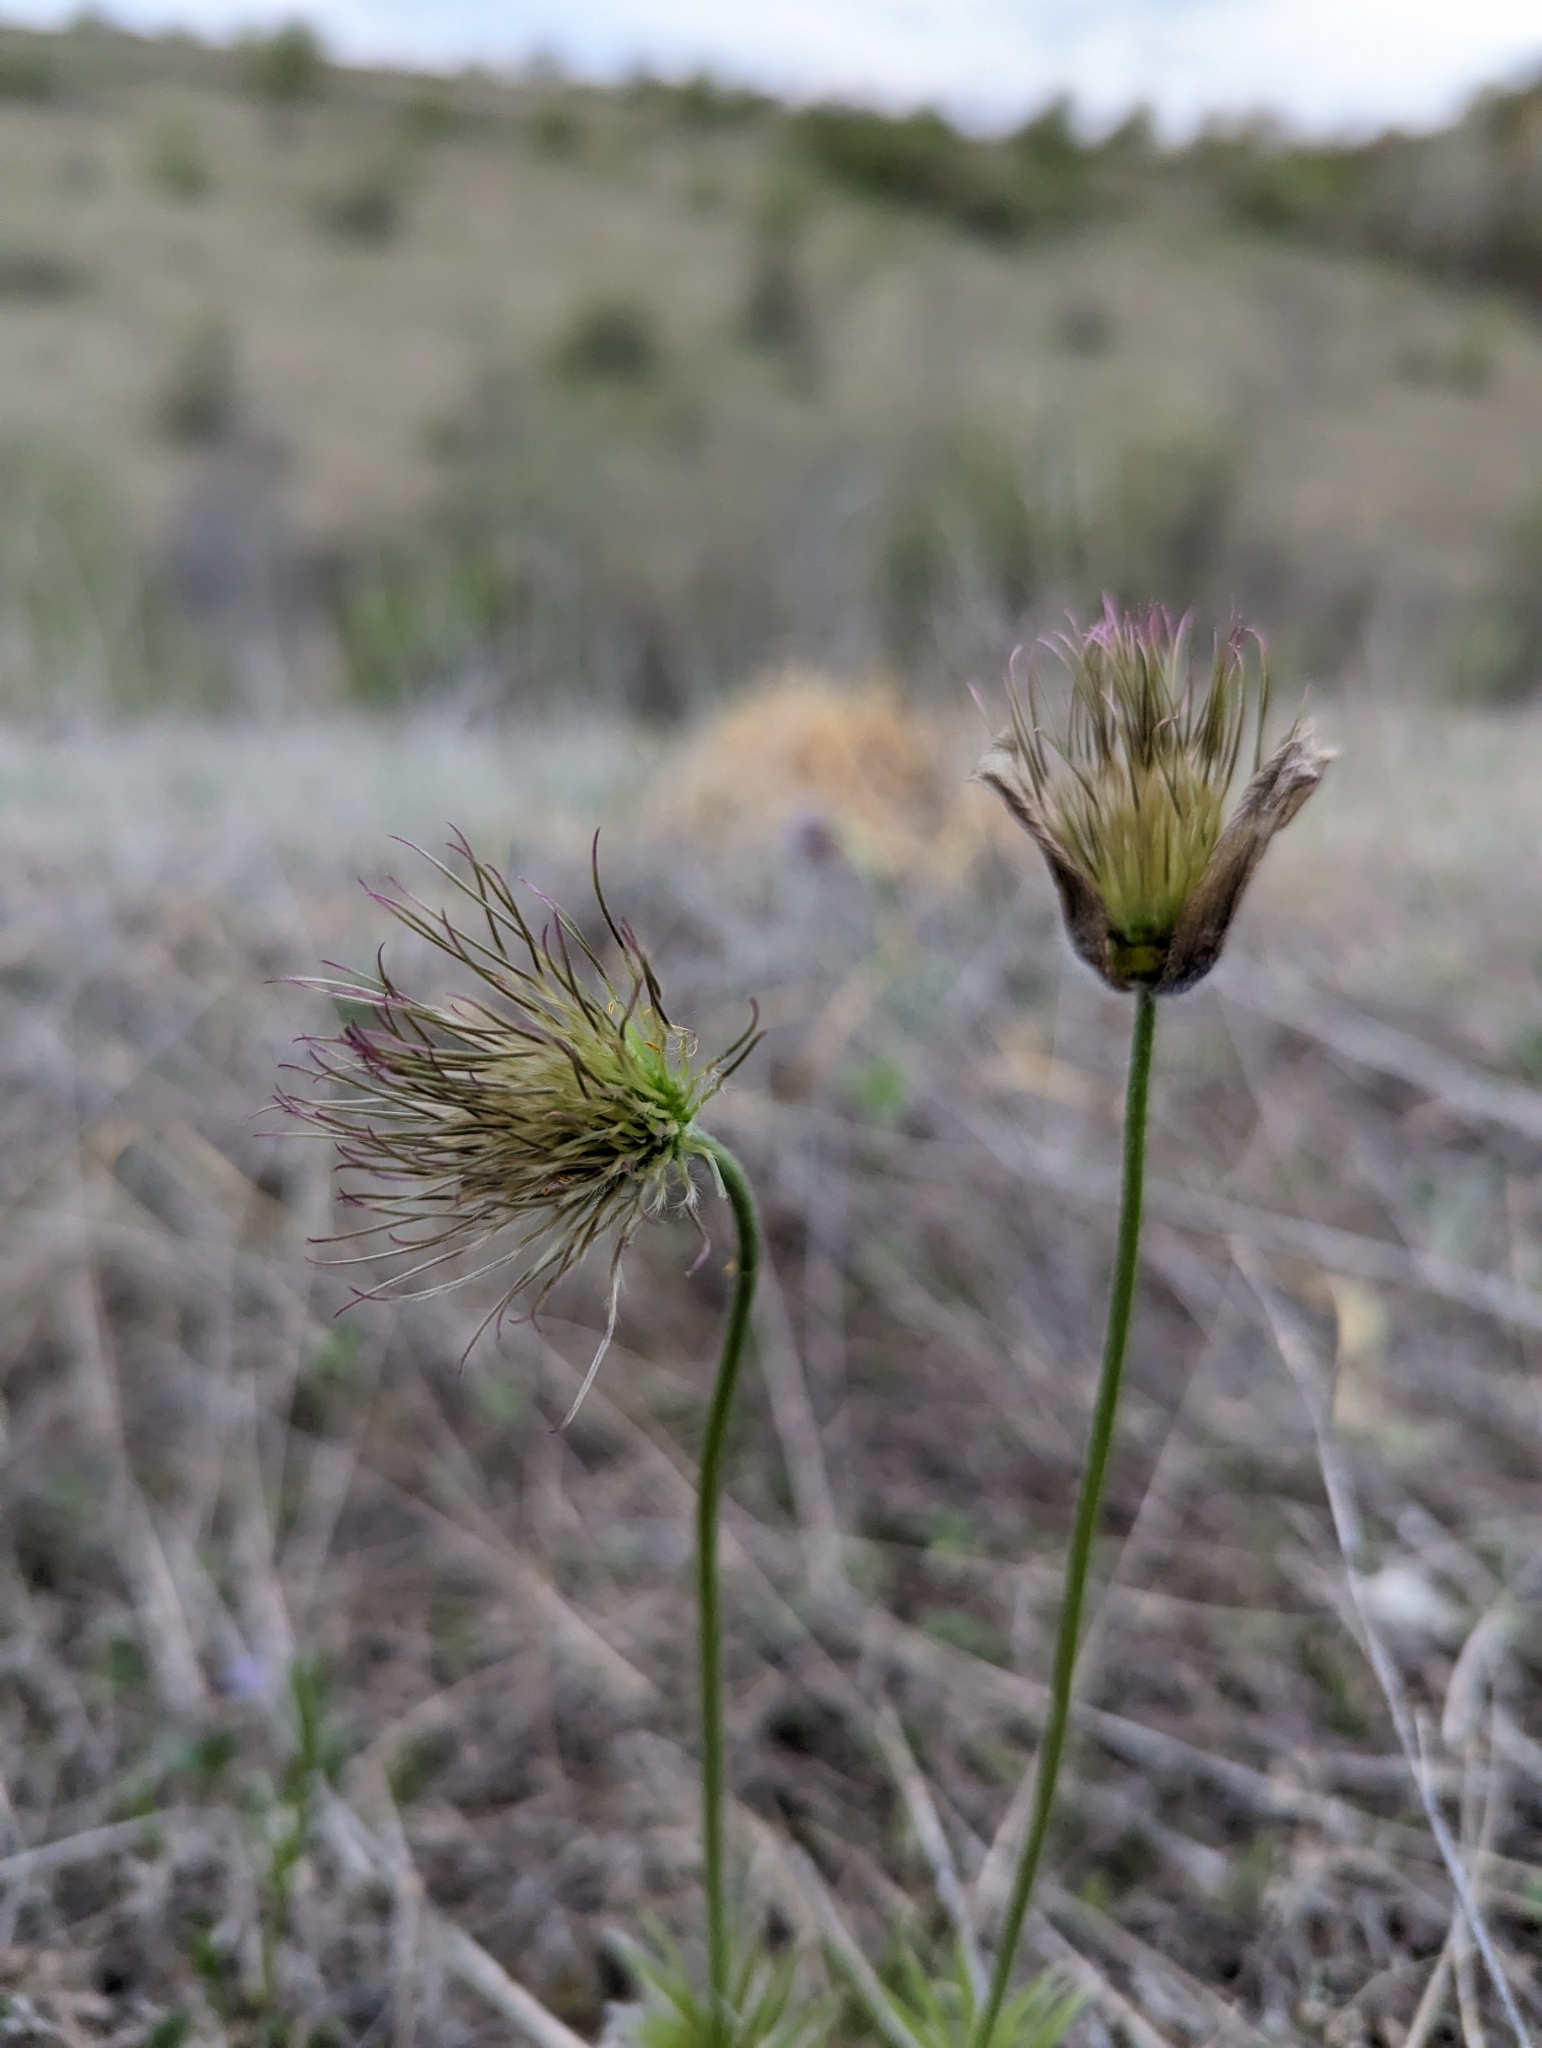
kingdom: Plantae
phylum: Tracheophyta
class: Magnoliopsida
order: Ranunculales
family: Ranunculaceae
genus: Pulsatilla
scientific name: Pulsatilla patens
